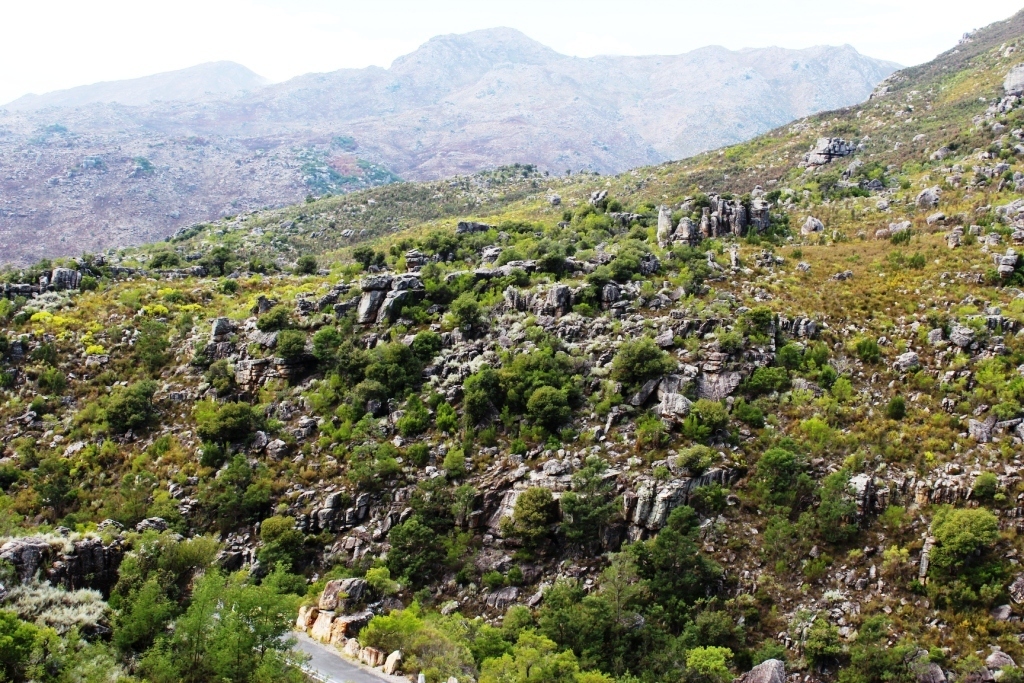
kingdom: Plantae
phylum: Tracheophyta
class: Magnoliopsida
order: Sapindales
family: Anacardiaceae
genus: Heeria
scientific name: Heeria argentea
